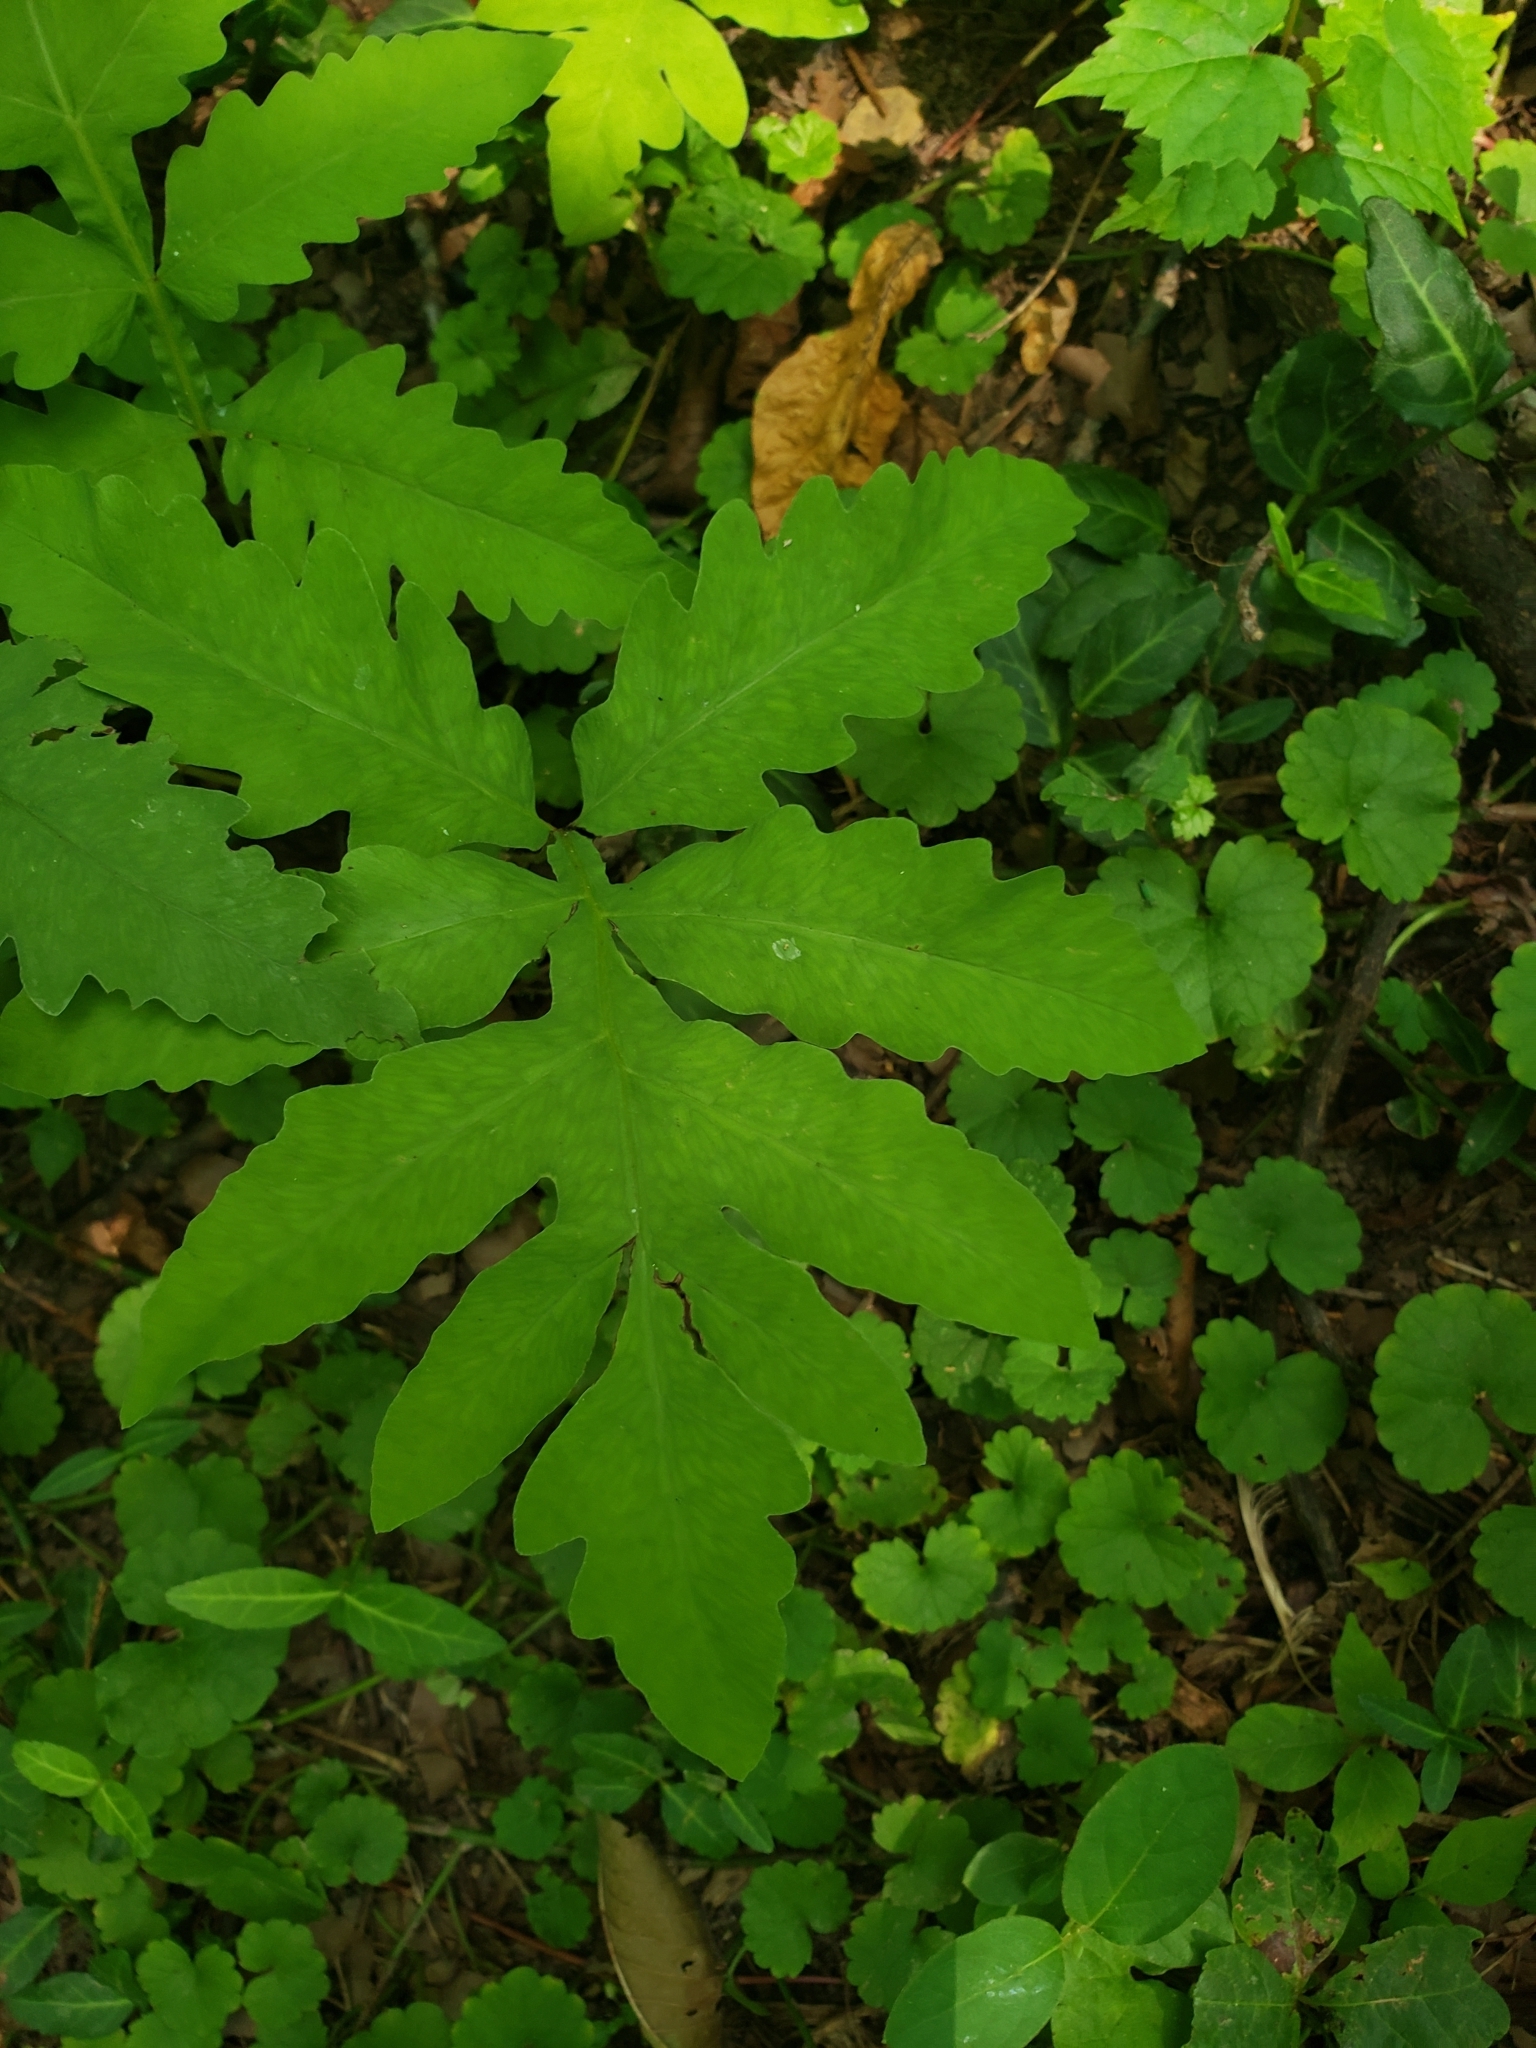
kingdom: Plantae
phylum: Tracheophyta
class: Polypodiopsida
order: Polypodiales
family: Onocleaceae
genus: Onoclea
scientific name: Onoclea sensibilis
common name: Sensitive fern
